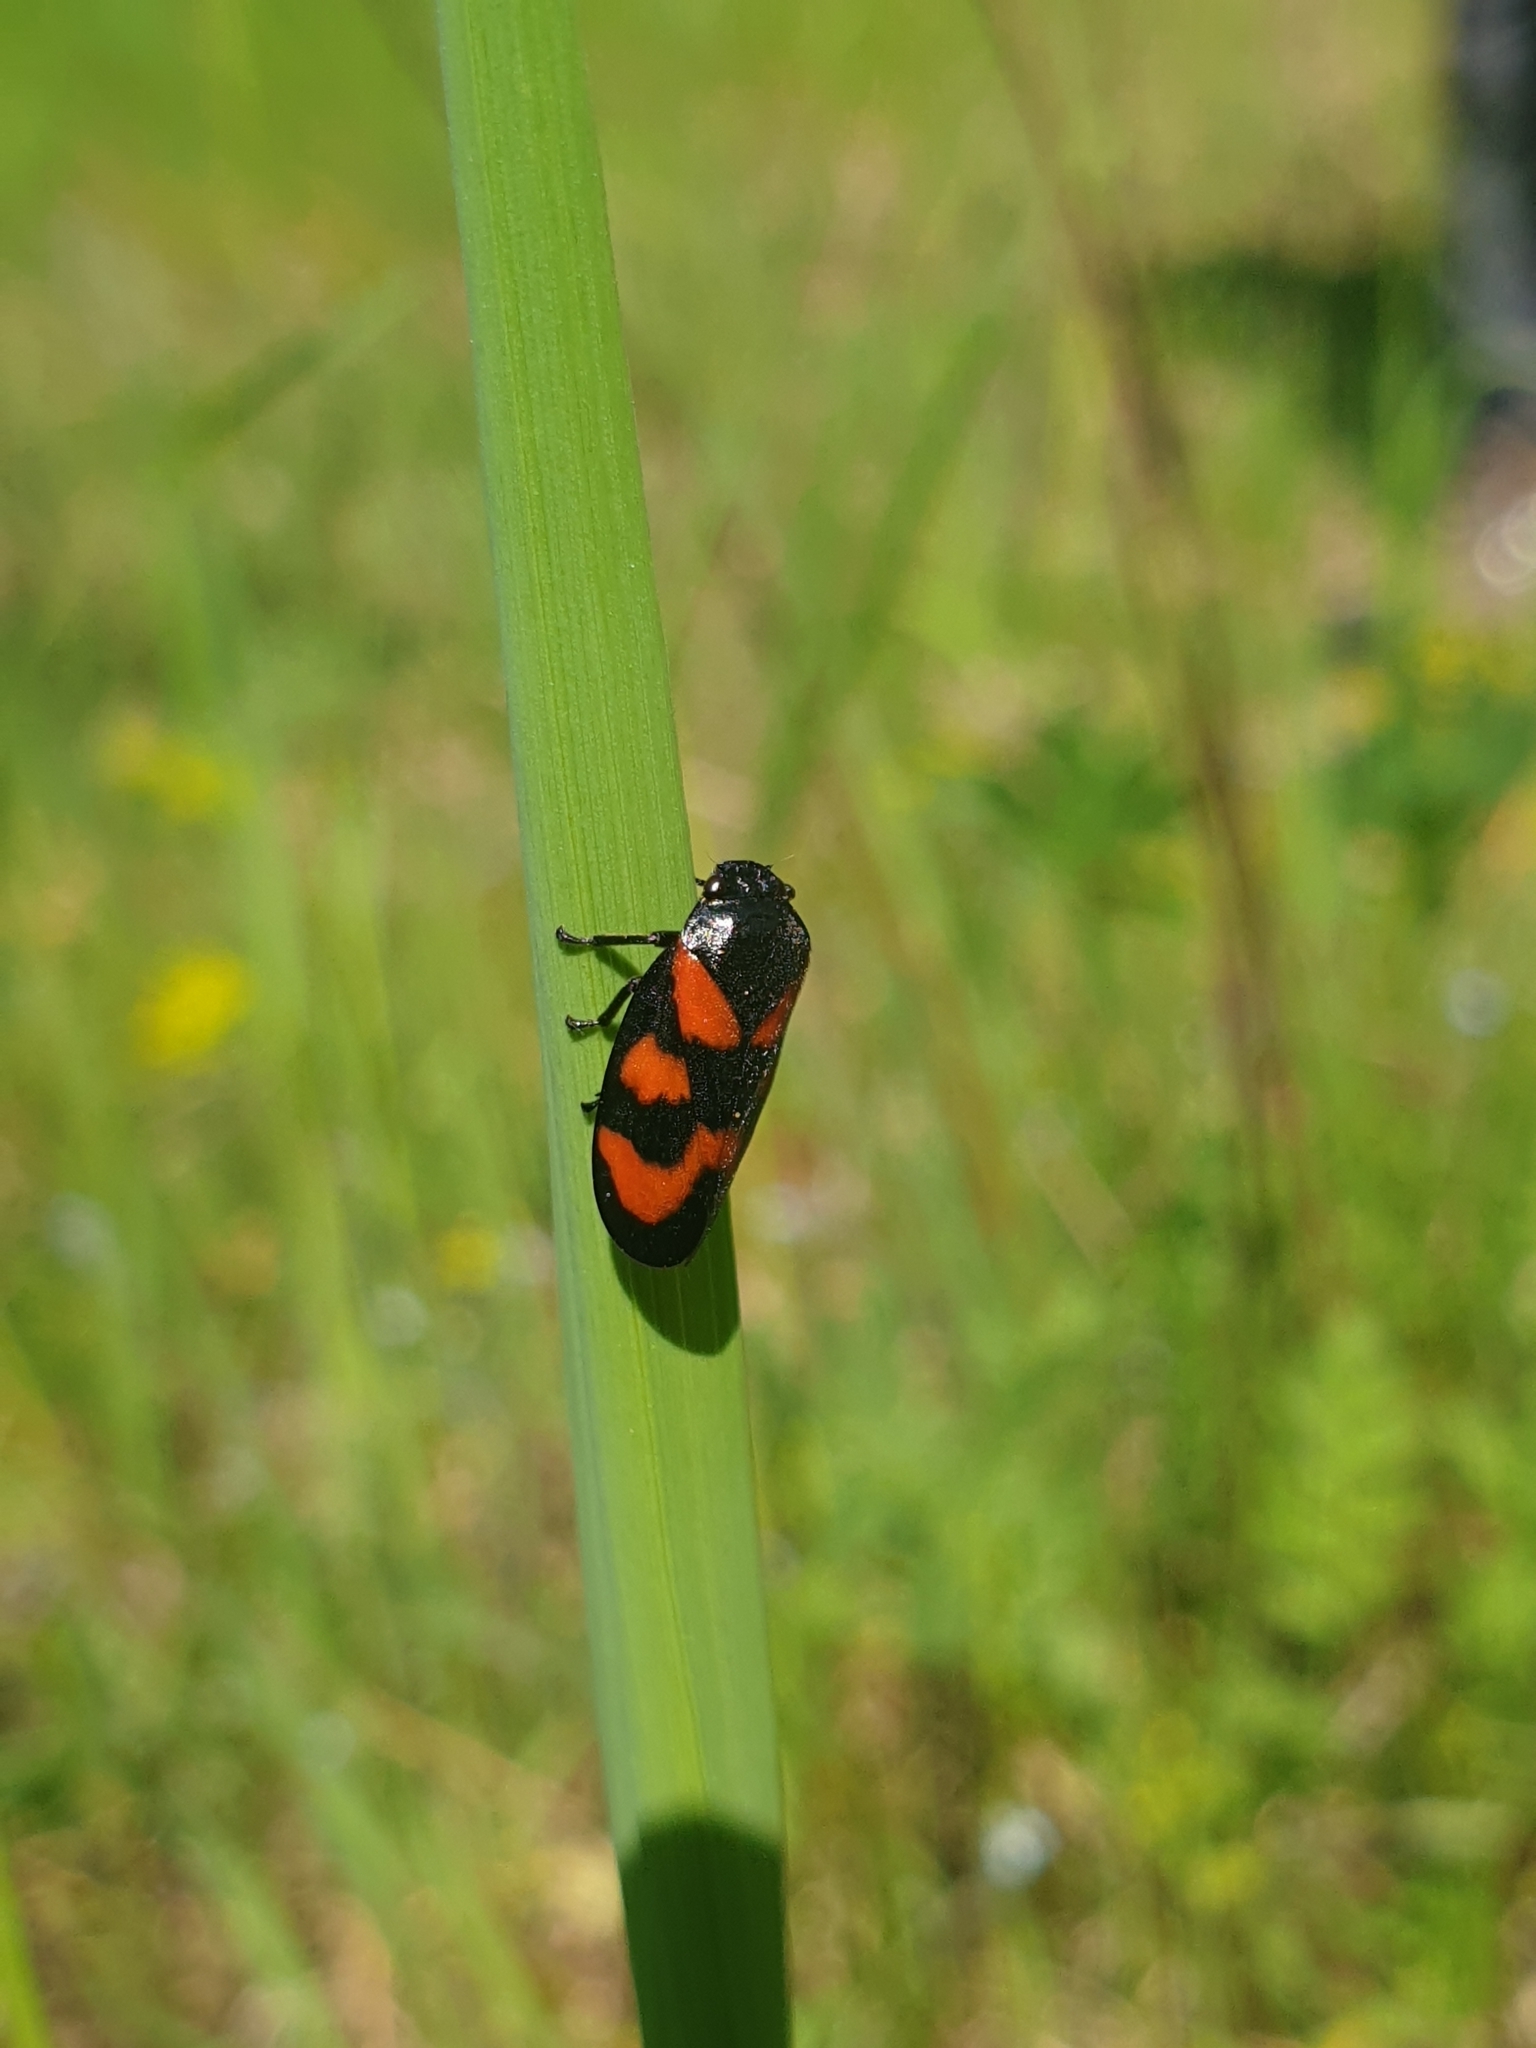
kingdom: Animalia
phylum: Arthropoda
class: Insecta
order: Hemiptera
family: Cercopidae
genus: Cercopis
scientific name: Cercopis vulnerata
